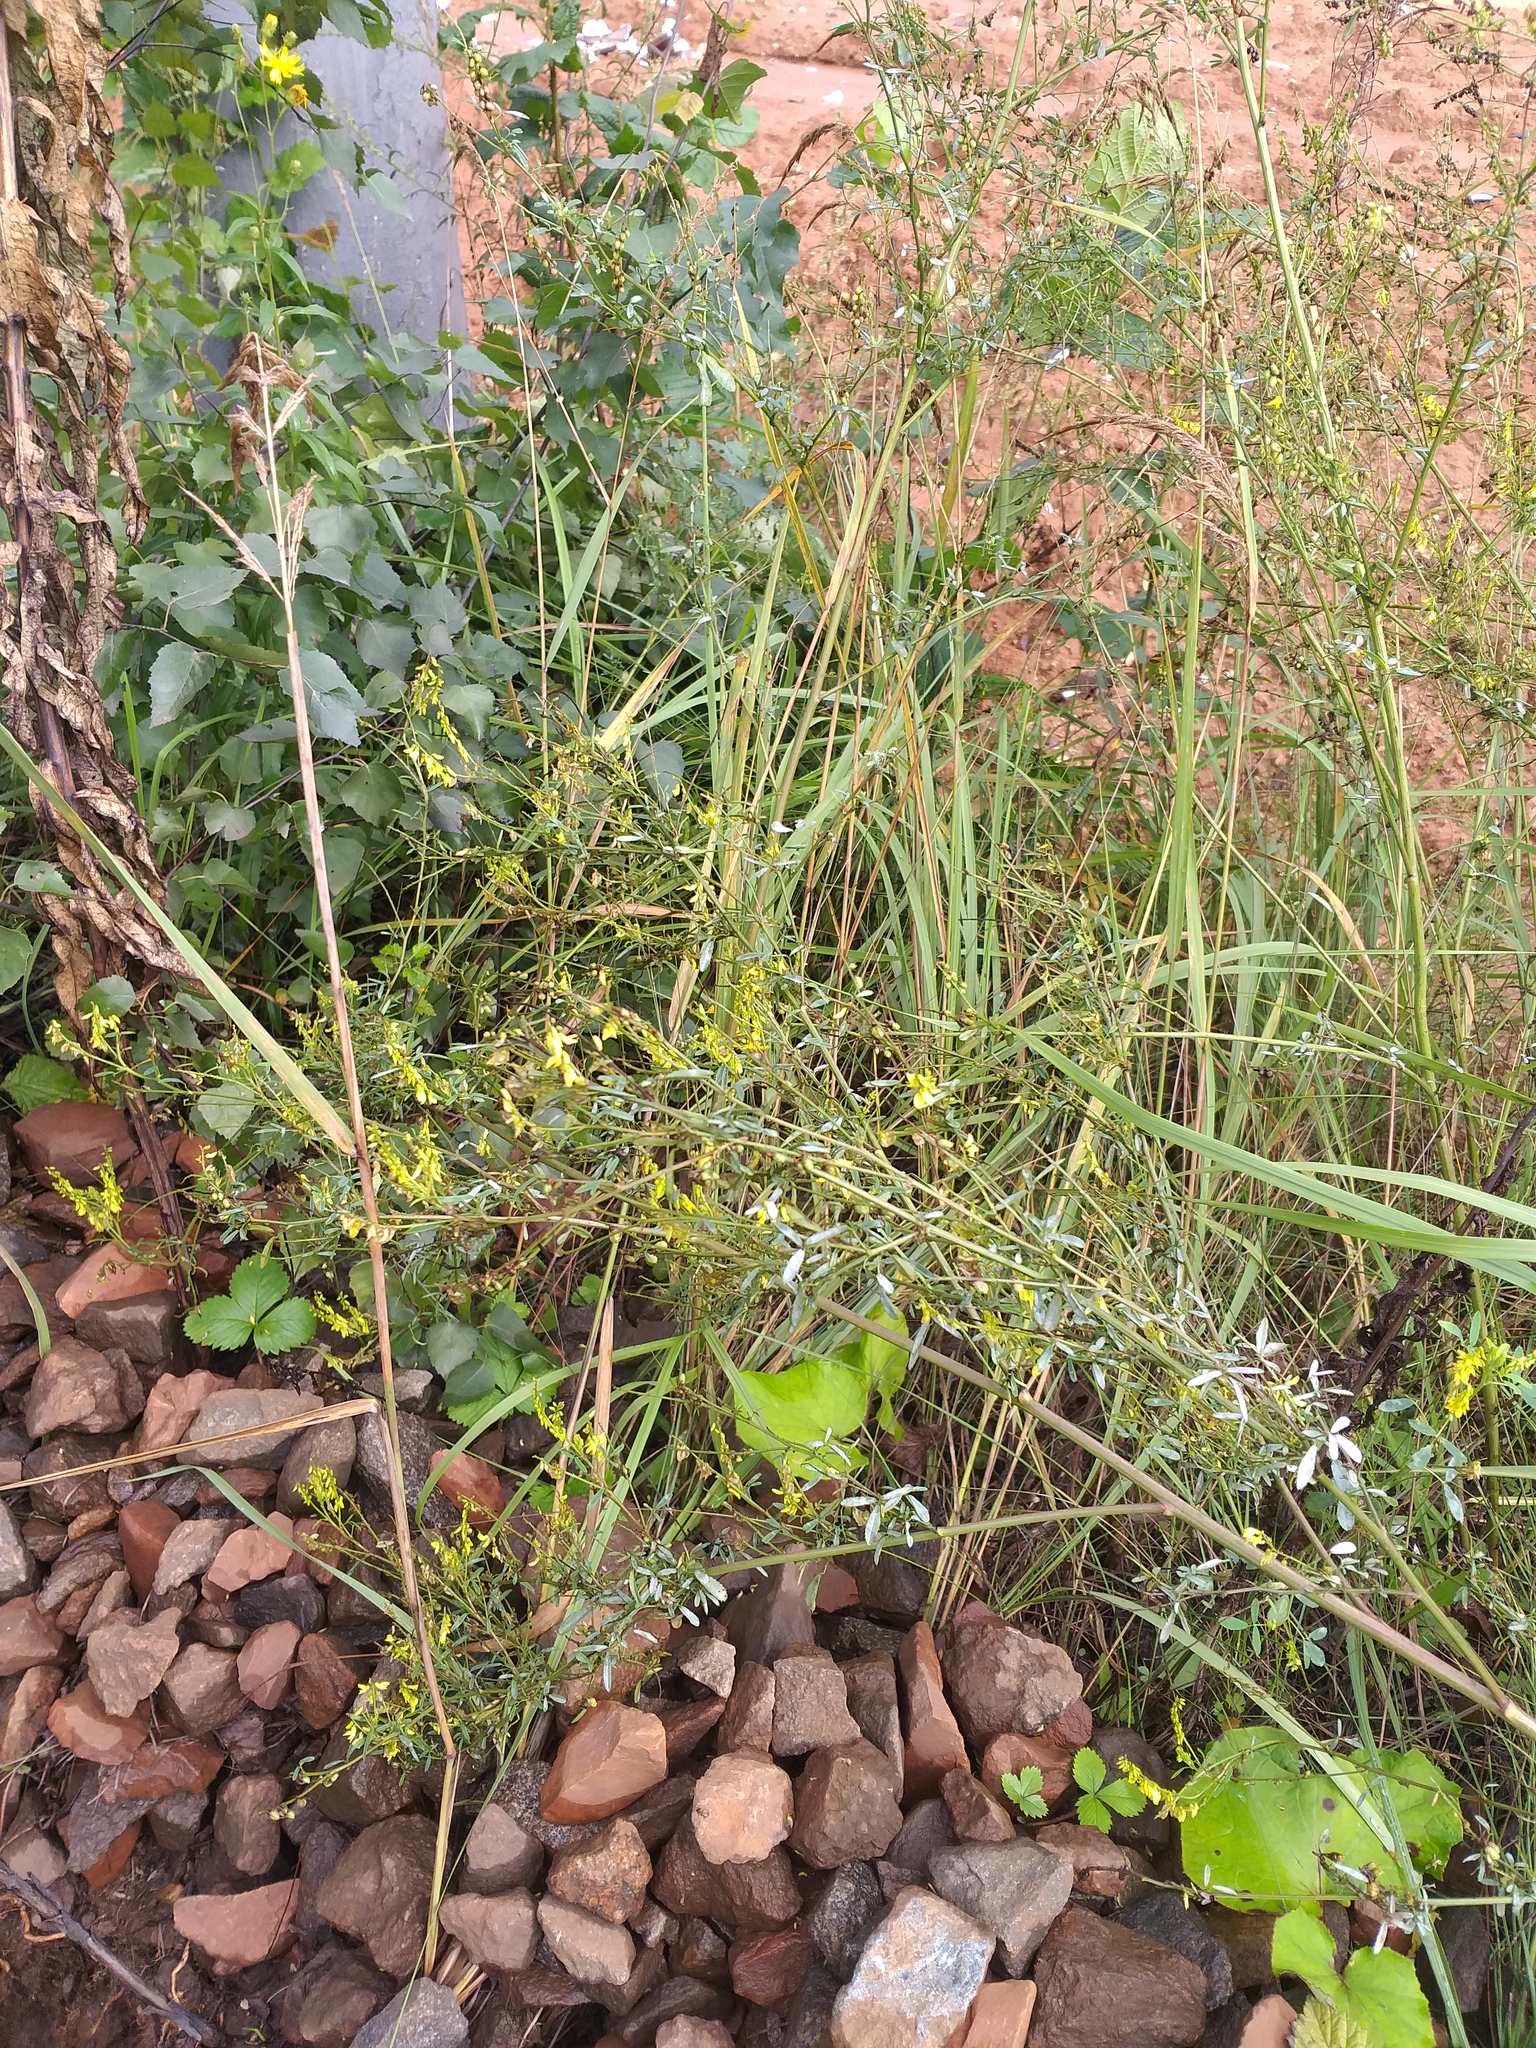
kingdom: Plantae
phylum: Tracheophyta
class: Magnoliopsida
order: Fabales
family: Fabaceae
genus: Melilotus
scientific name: Melilotus officinalis
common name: Sweetclover
